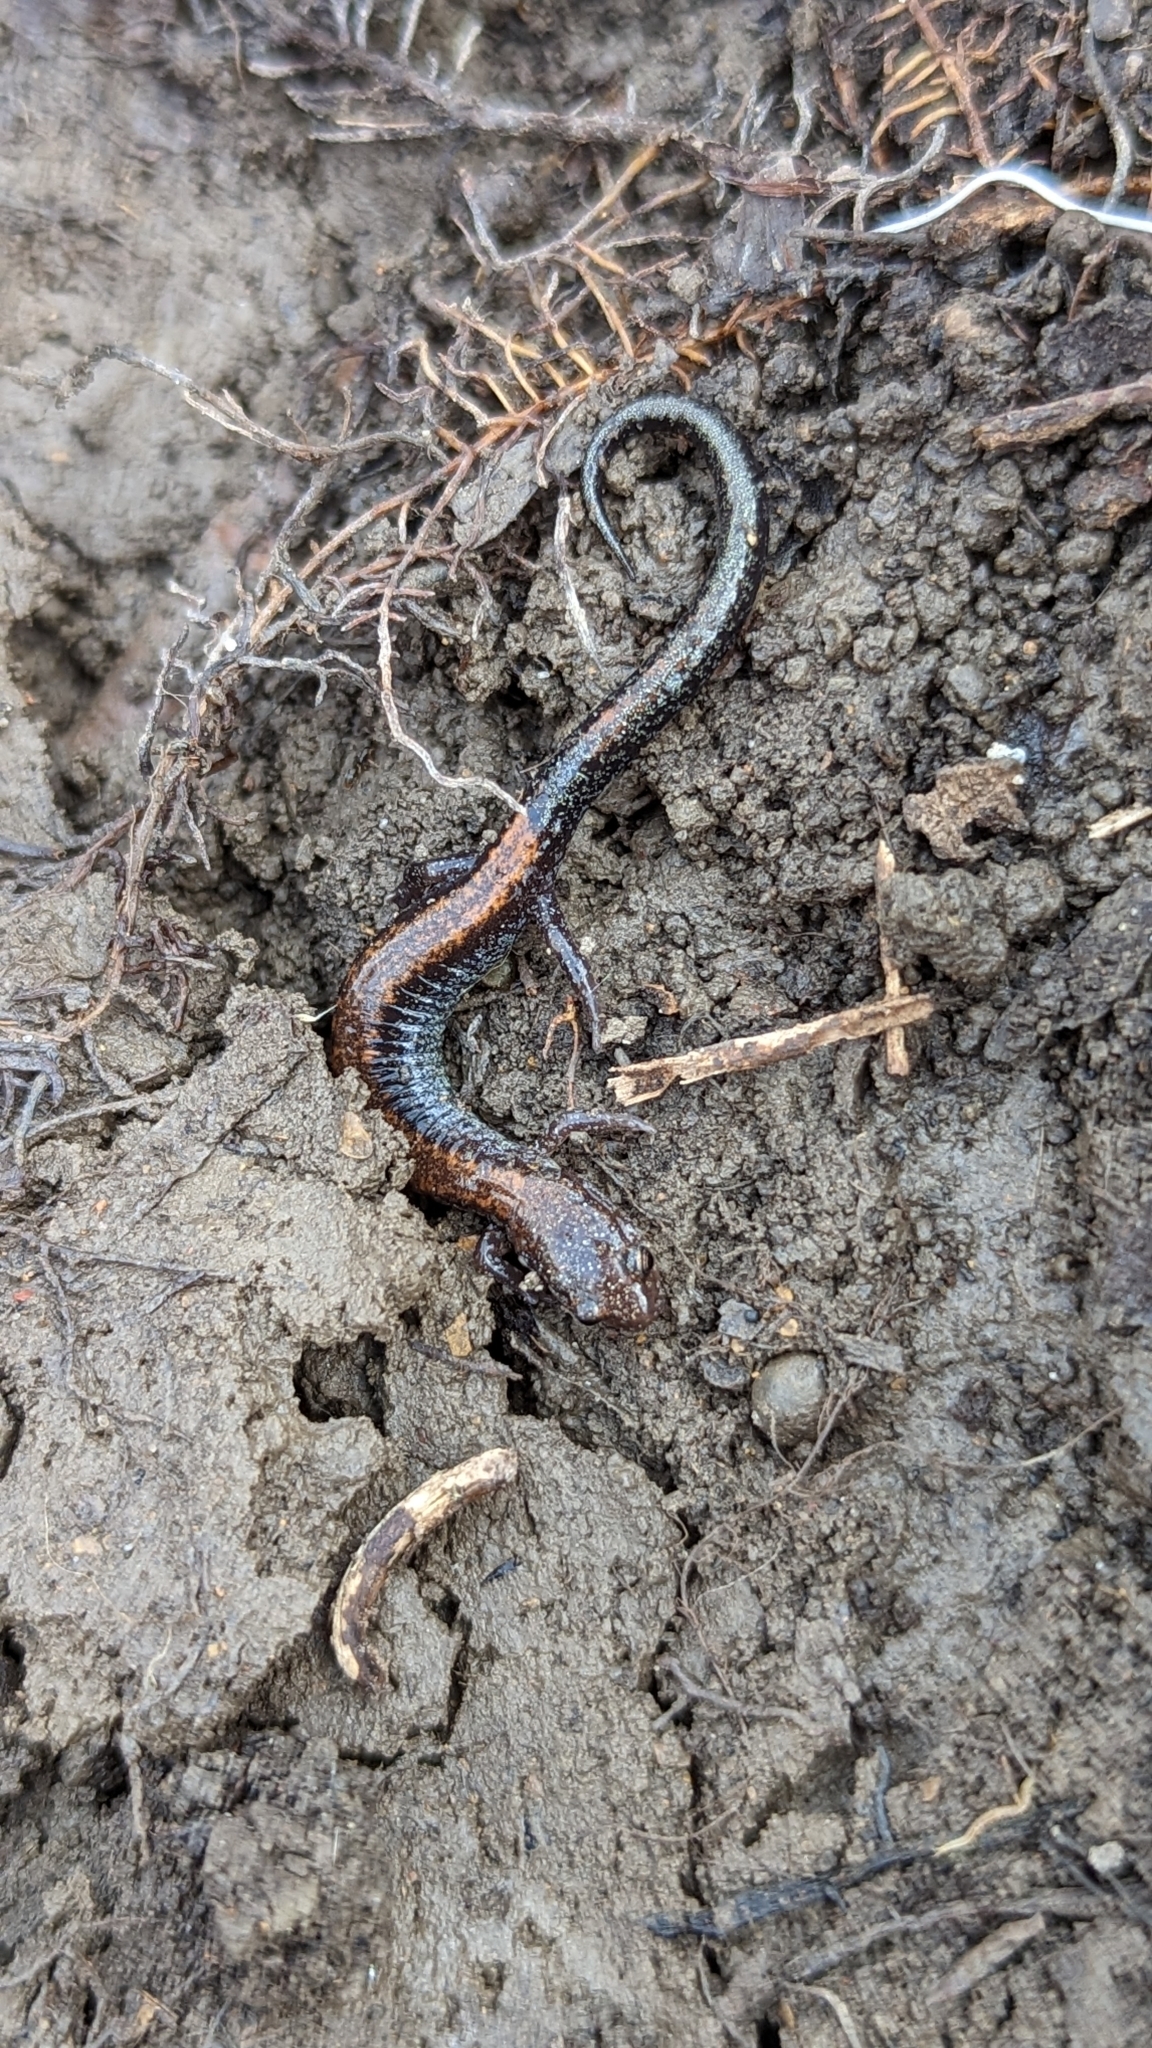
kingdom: Animalia
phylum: Chordata
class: Amphibia
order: Caudata
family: Plethodontidae
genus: Plethodon
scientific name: Plethodon cinereus
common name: Redback salamander
